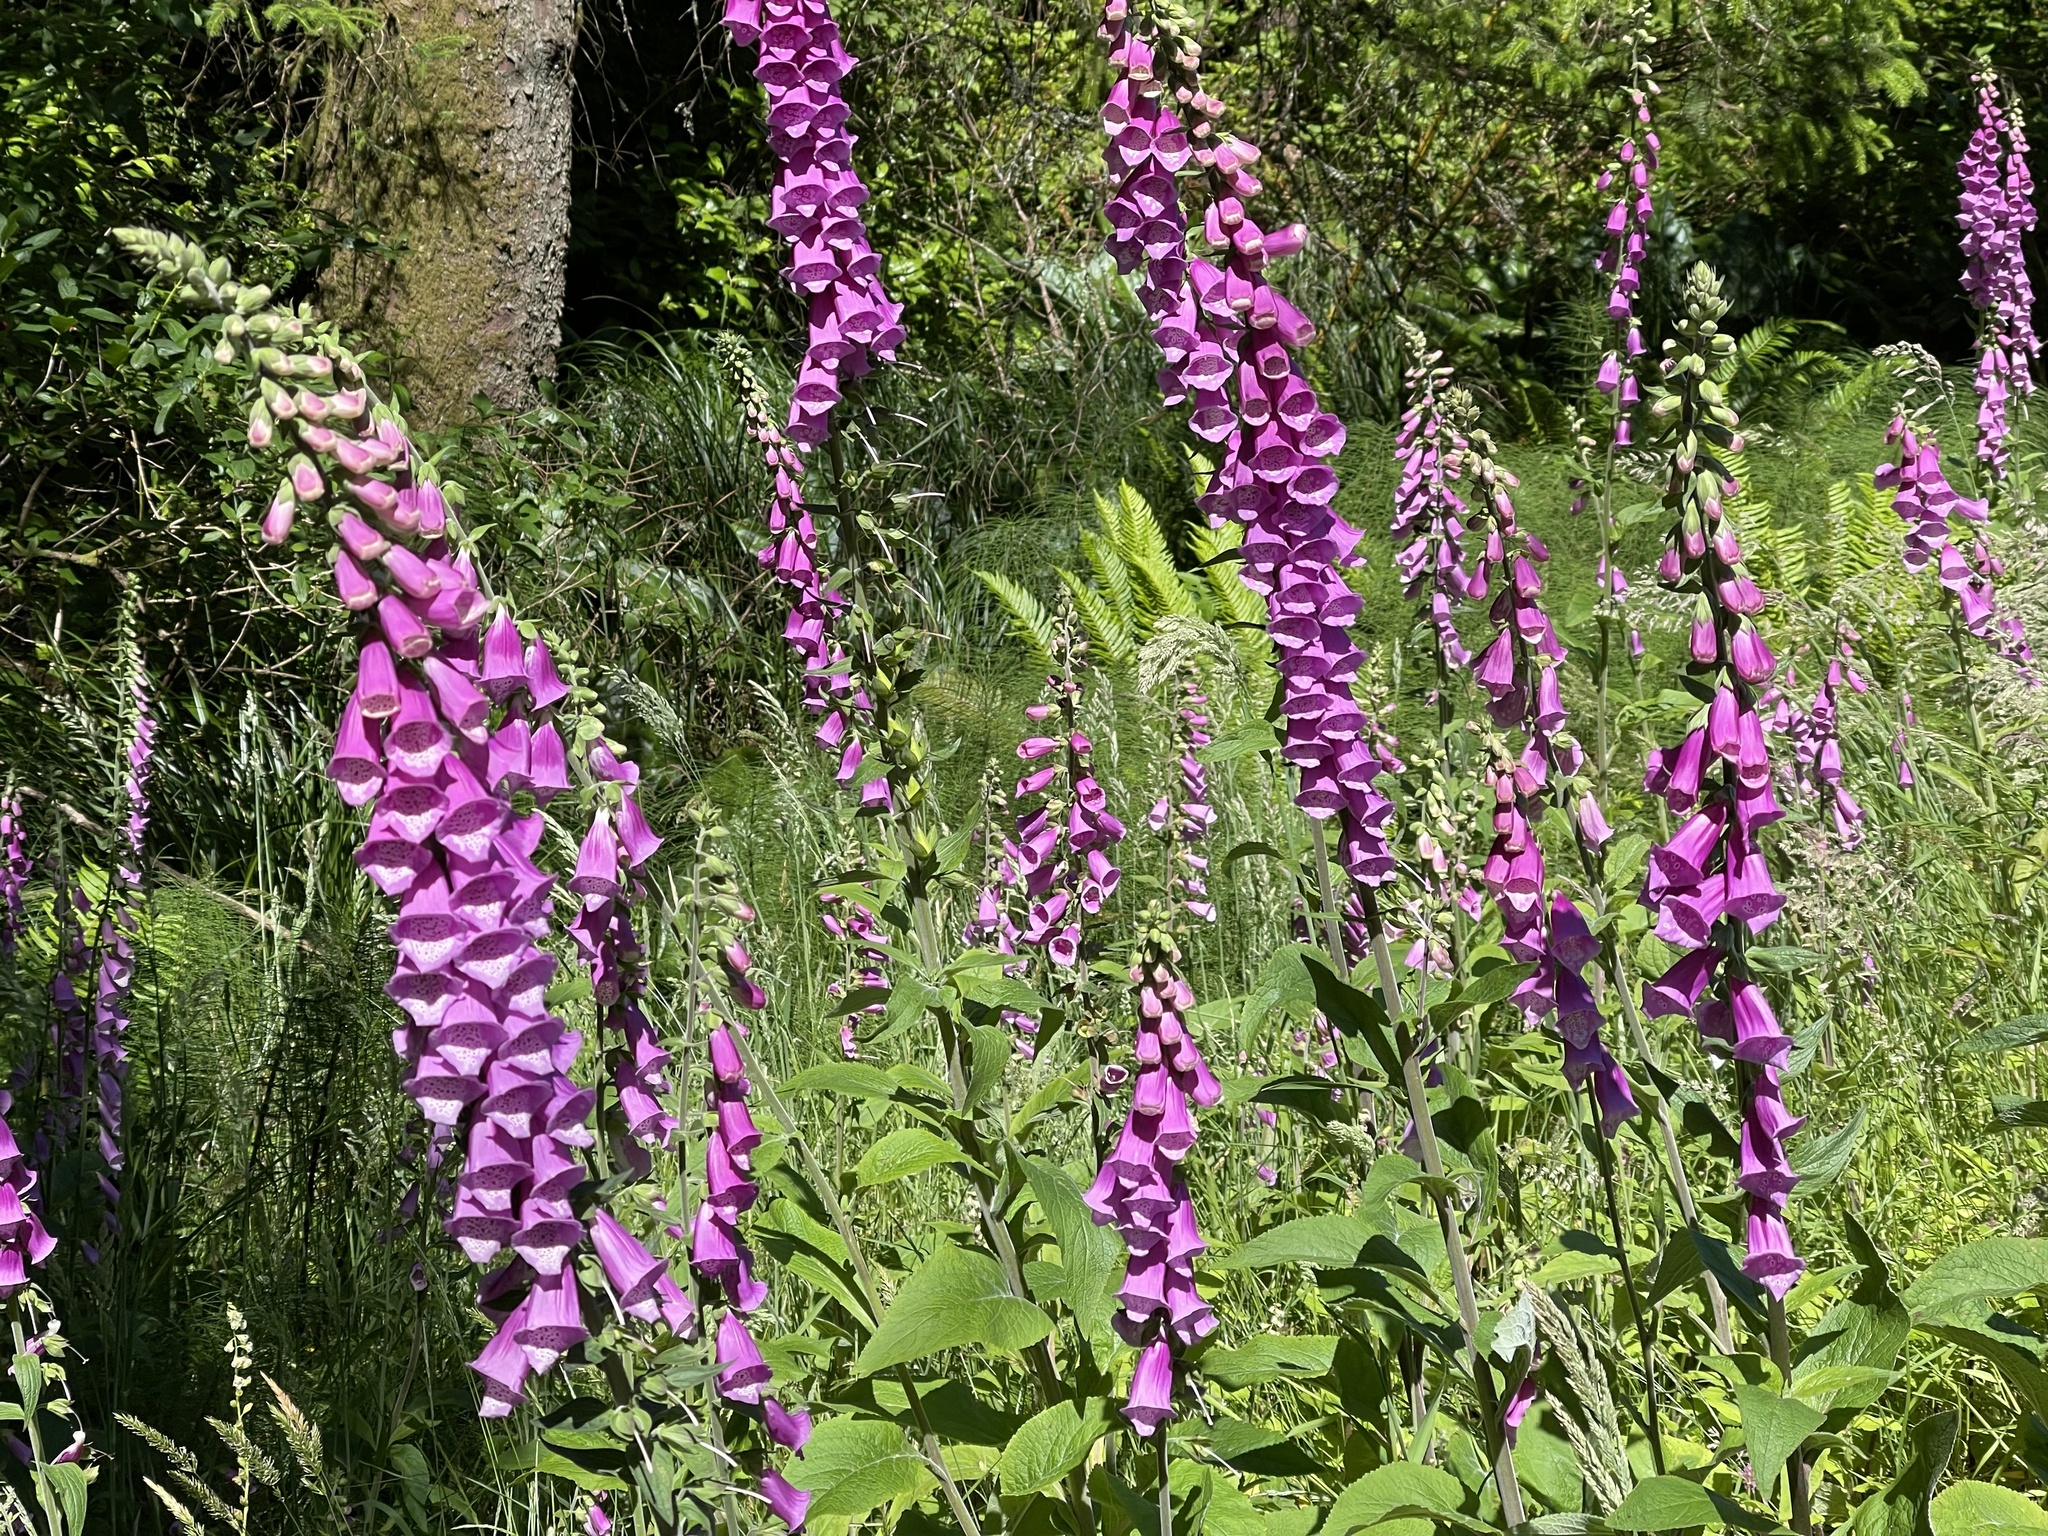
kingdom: Plantae
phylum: Tracheophyta
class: Magnoliopsida
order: Lamiales
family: Plantaginaceae
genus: Digitalis
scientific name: Digitalis purpurea
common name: Foxglove
